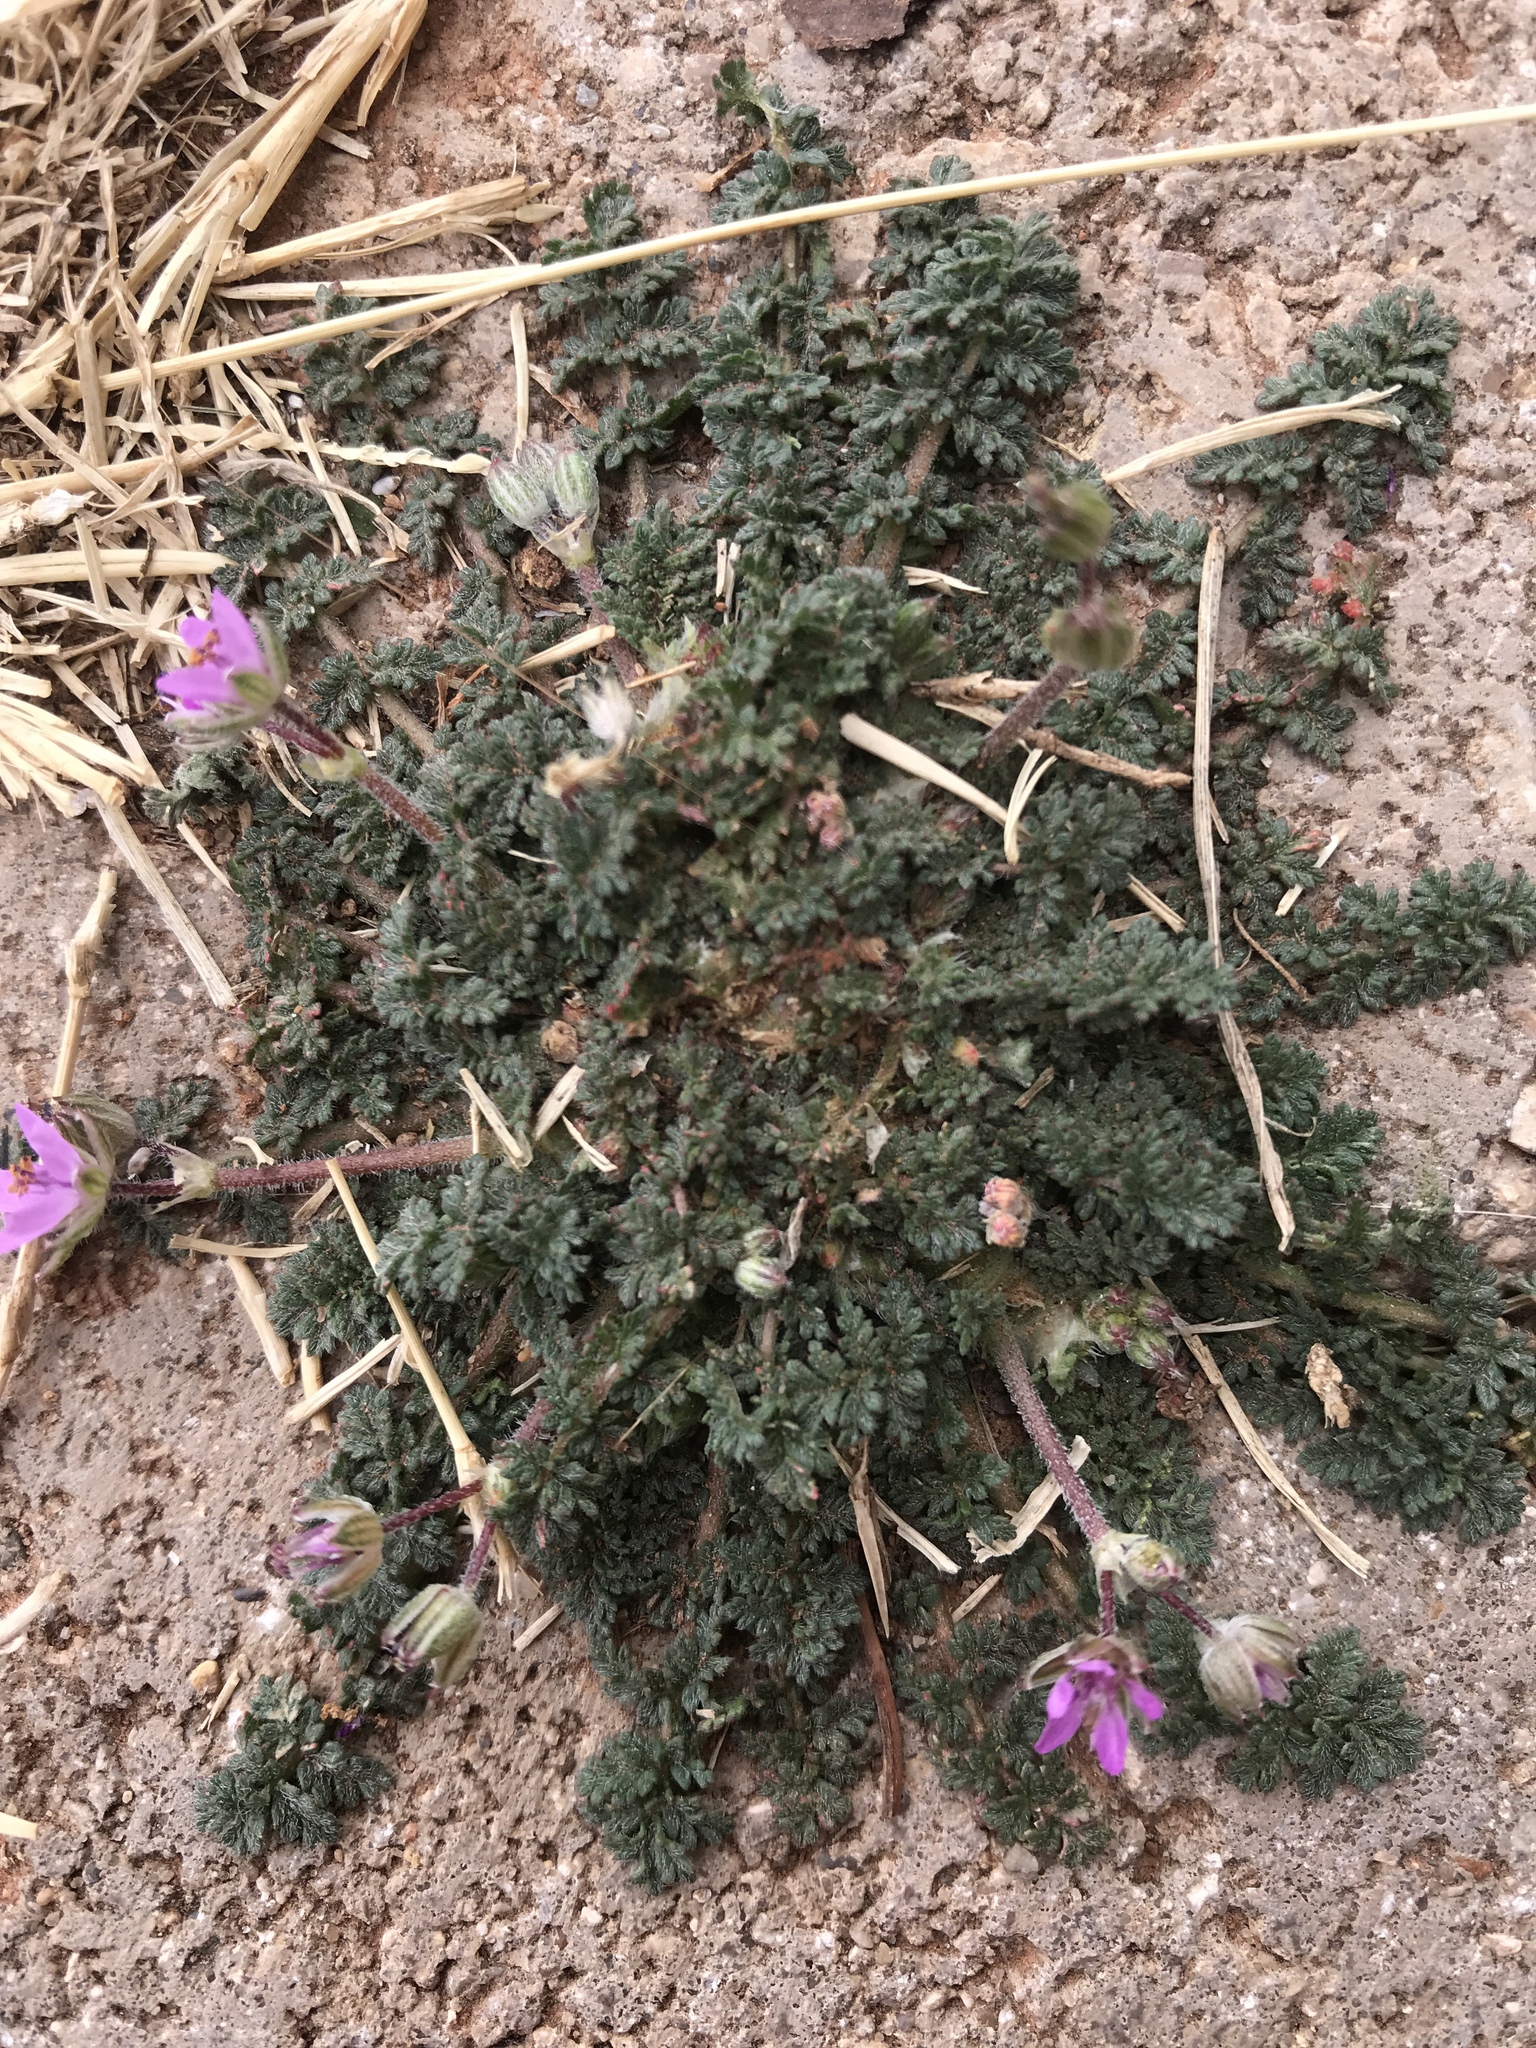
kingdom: Plantae
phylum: Tracheophyta
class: Magnoliopsida
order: Geraniales
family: Geraniaceae
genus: Erodium
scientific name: Erodium cicutarium
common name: Common stork's-bill
